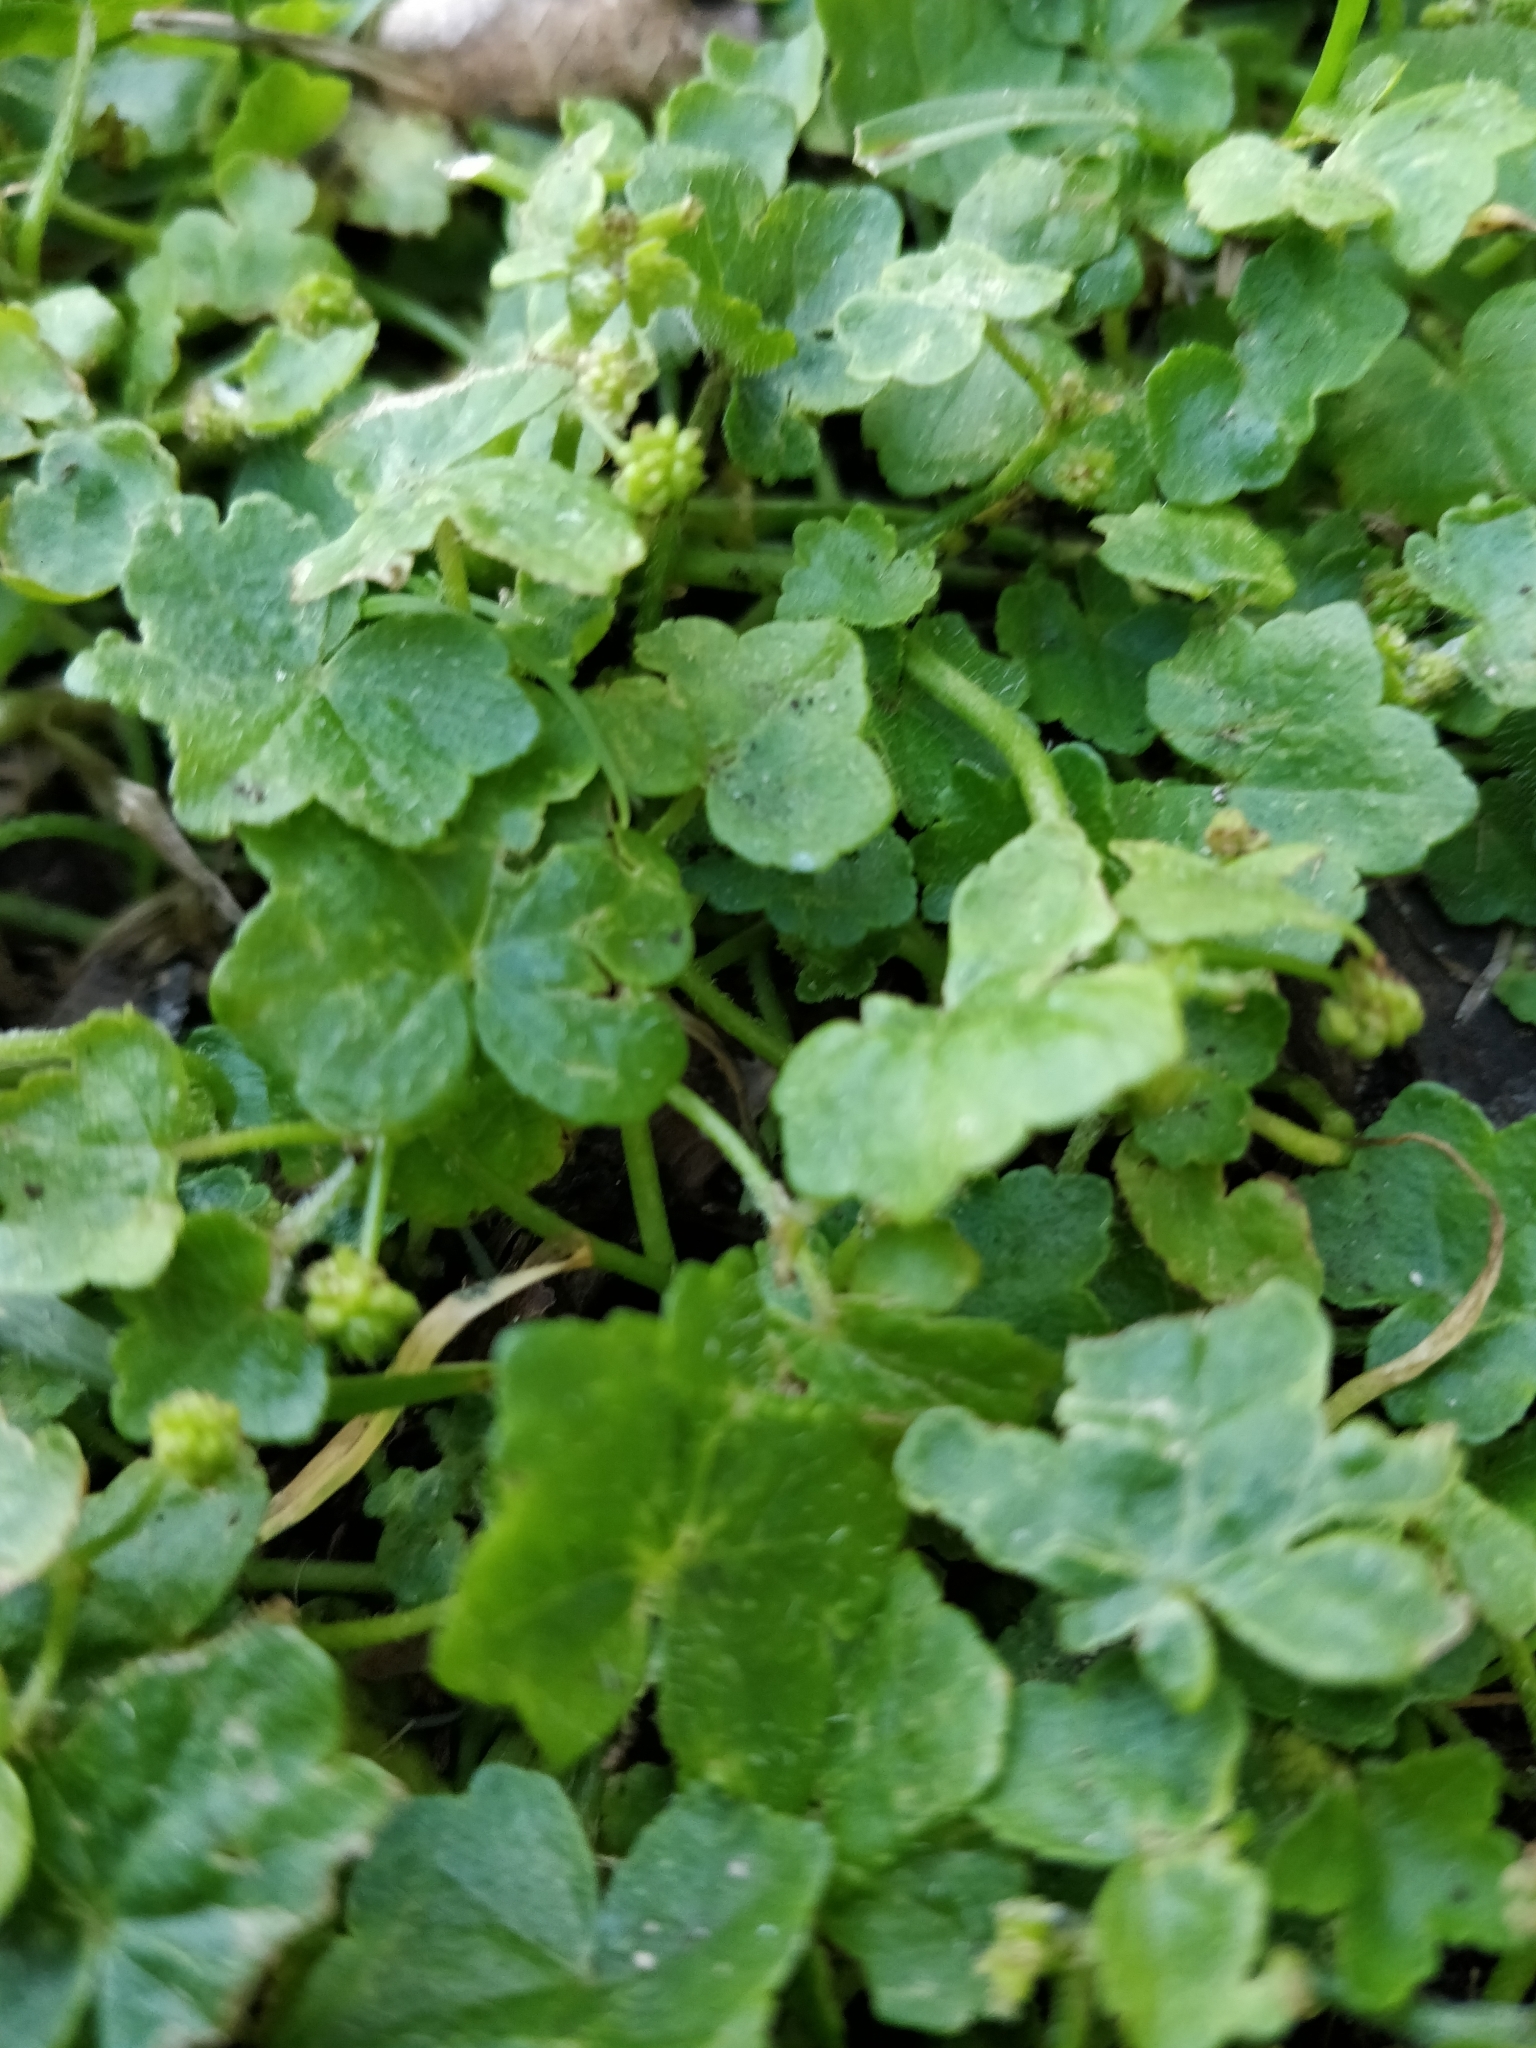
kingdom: Plantae
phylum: Tracheophyta
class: Magnoliopsida
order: Apiales
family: Araliaceae
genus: Hydrocotyle
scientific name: Hydrocotyle hirta
